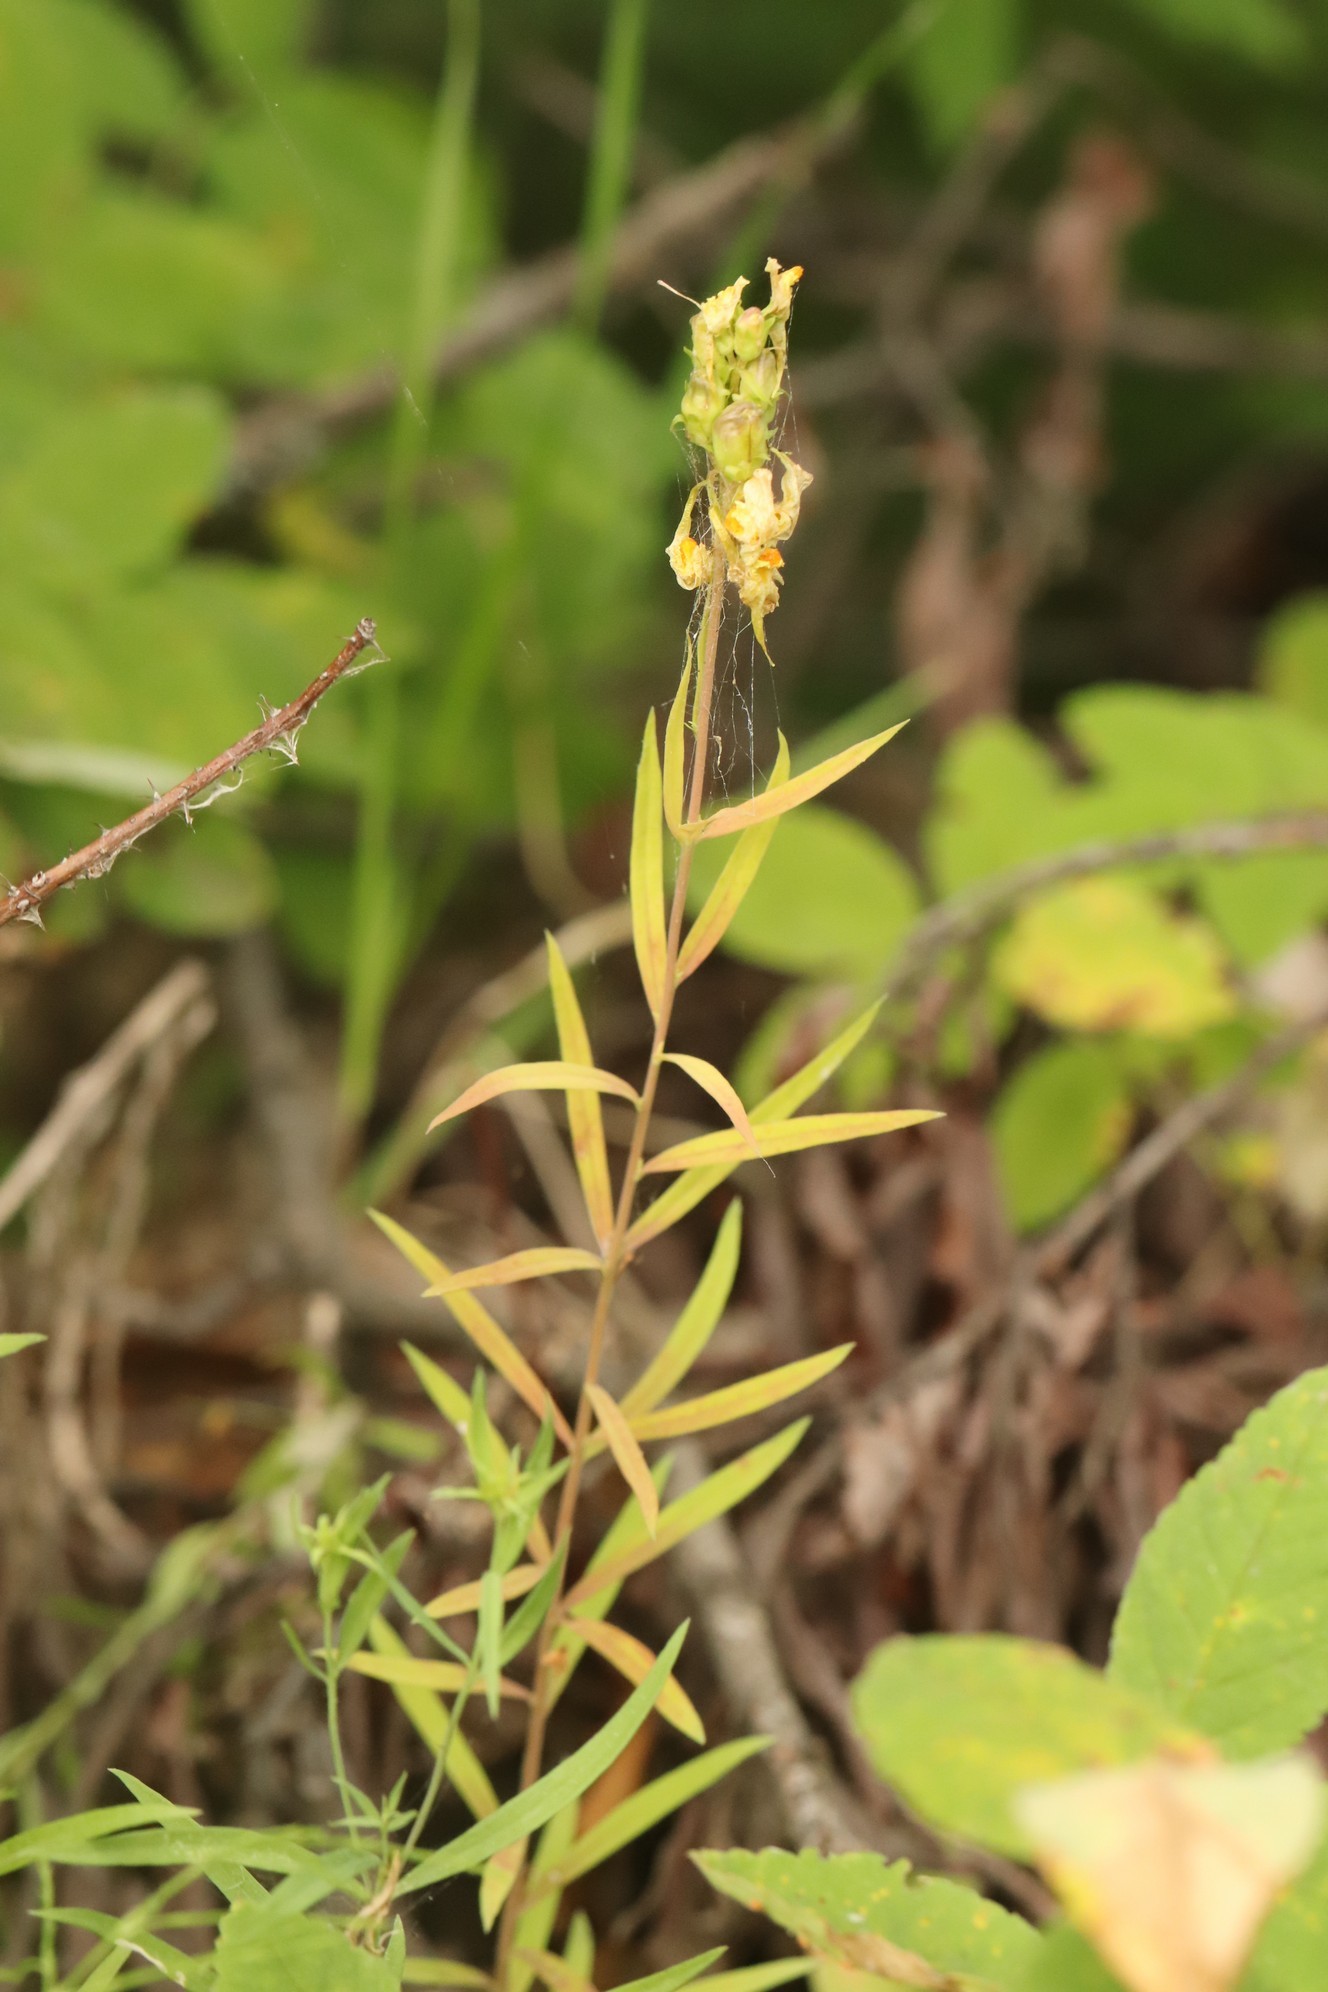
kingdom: Plantae
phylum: Tracheophyta
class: Magnoliopsida
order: Lamiales
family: Plantaginaceae
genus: Linaria
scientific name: Linaria vulgaris
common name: Butter and eggs
